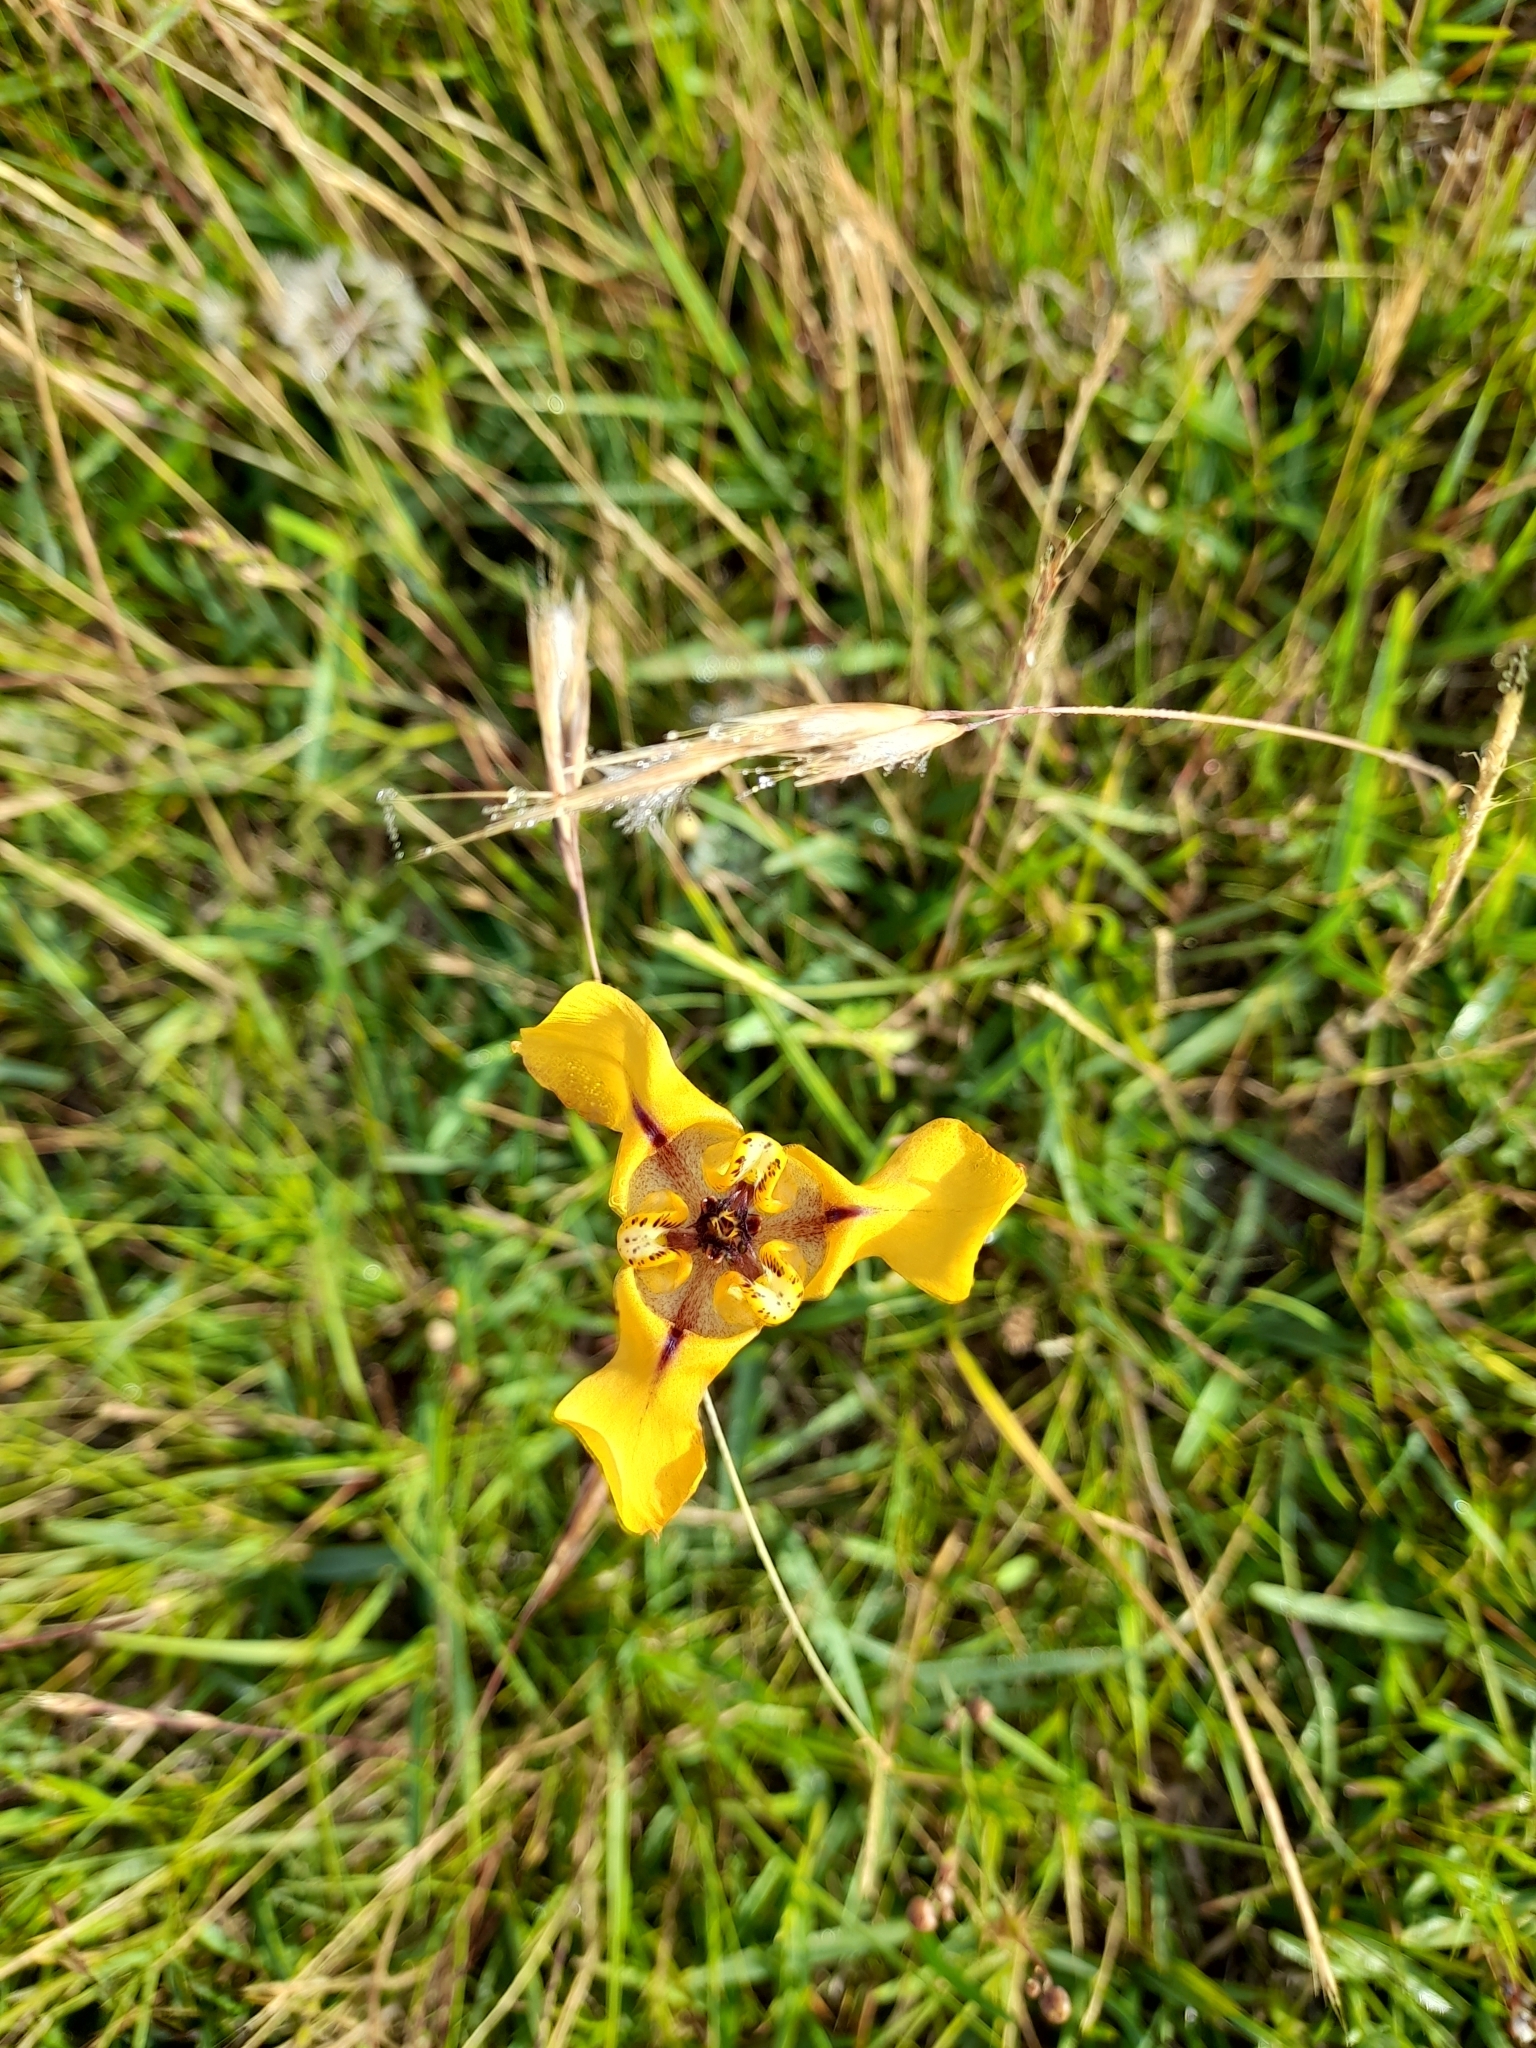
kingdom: Plantae
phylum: Tracheophyta
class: Liliopsida
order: Asparagales
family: Iridaceae
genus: Cypella
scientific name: Cypella herbertii
